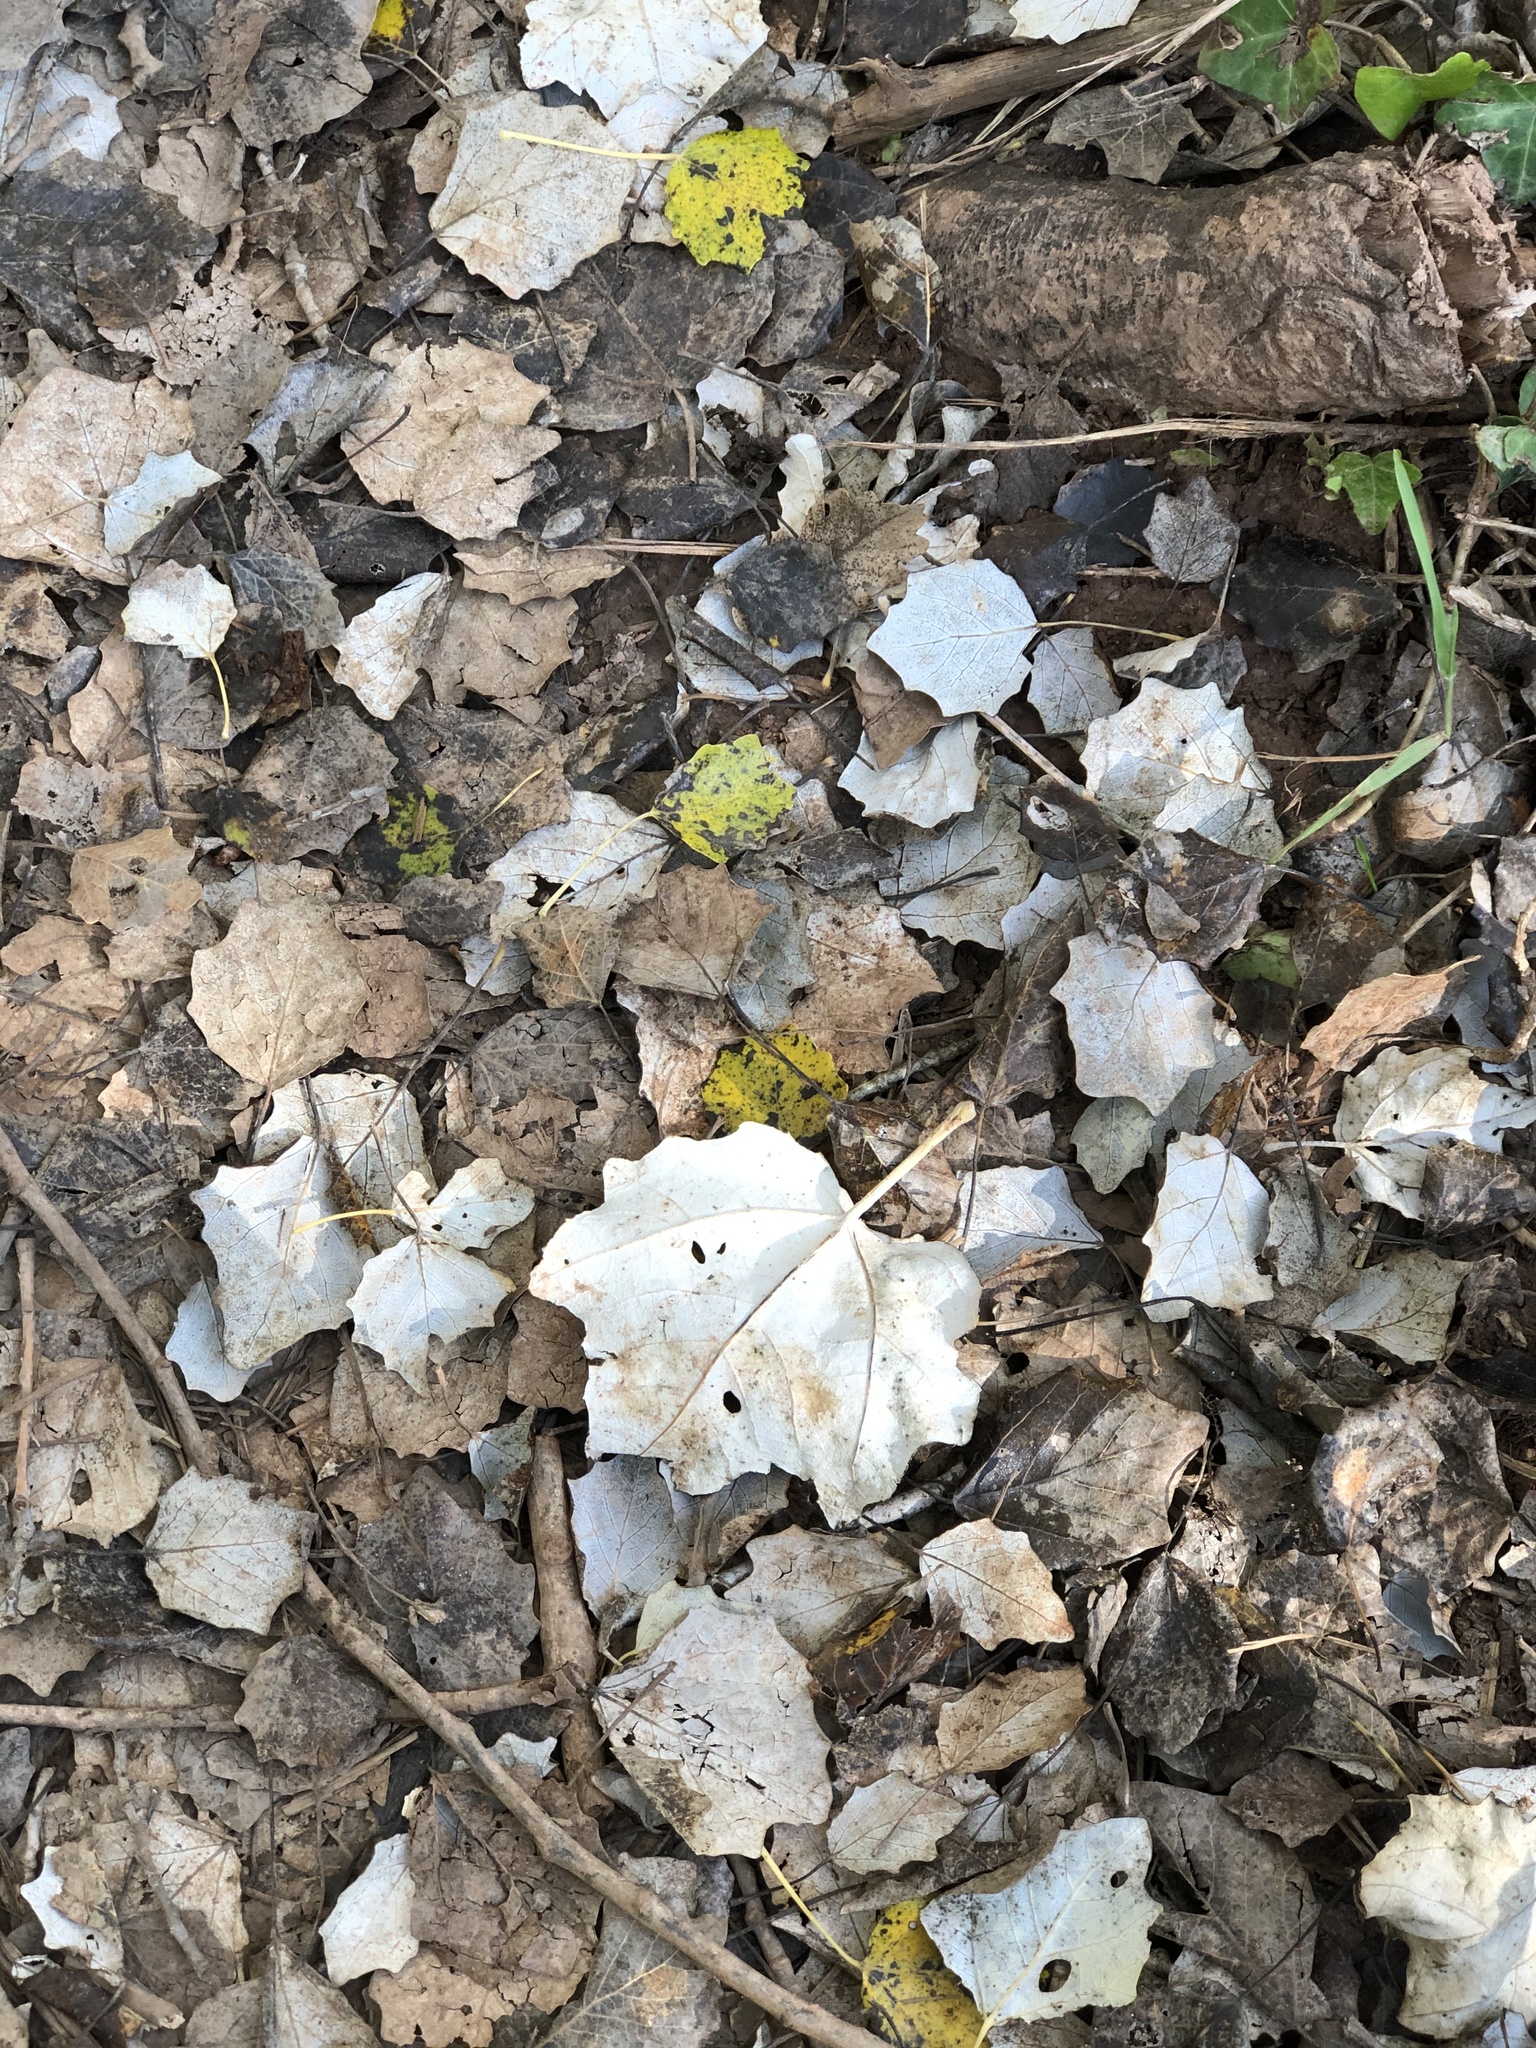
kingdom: Plantae
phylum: Tracheophyta
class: Magnoliopsida
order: Malpighiales
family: Salicaceae
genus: Populus
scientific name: Populus alba
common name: White poplar
